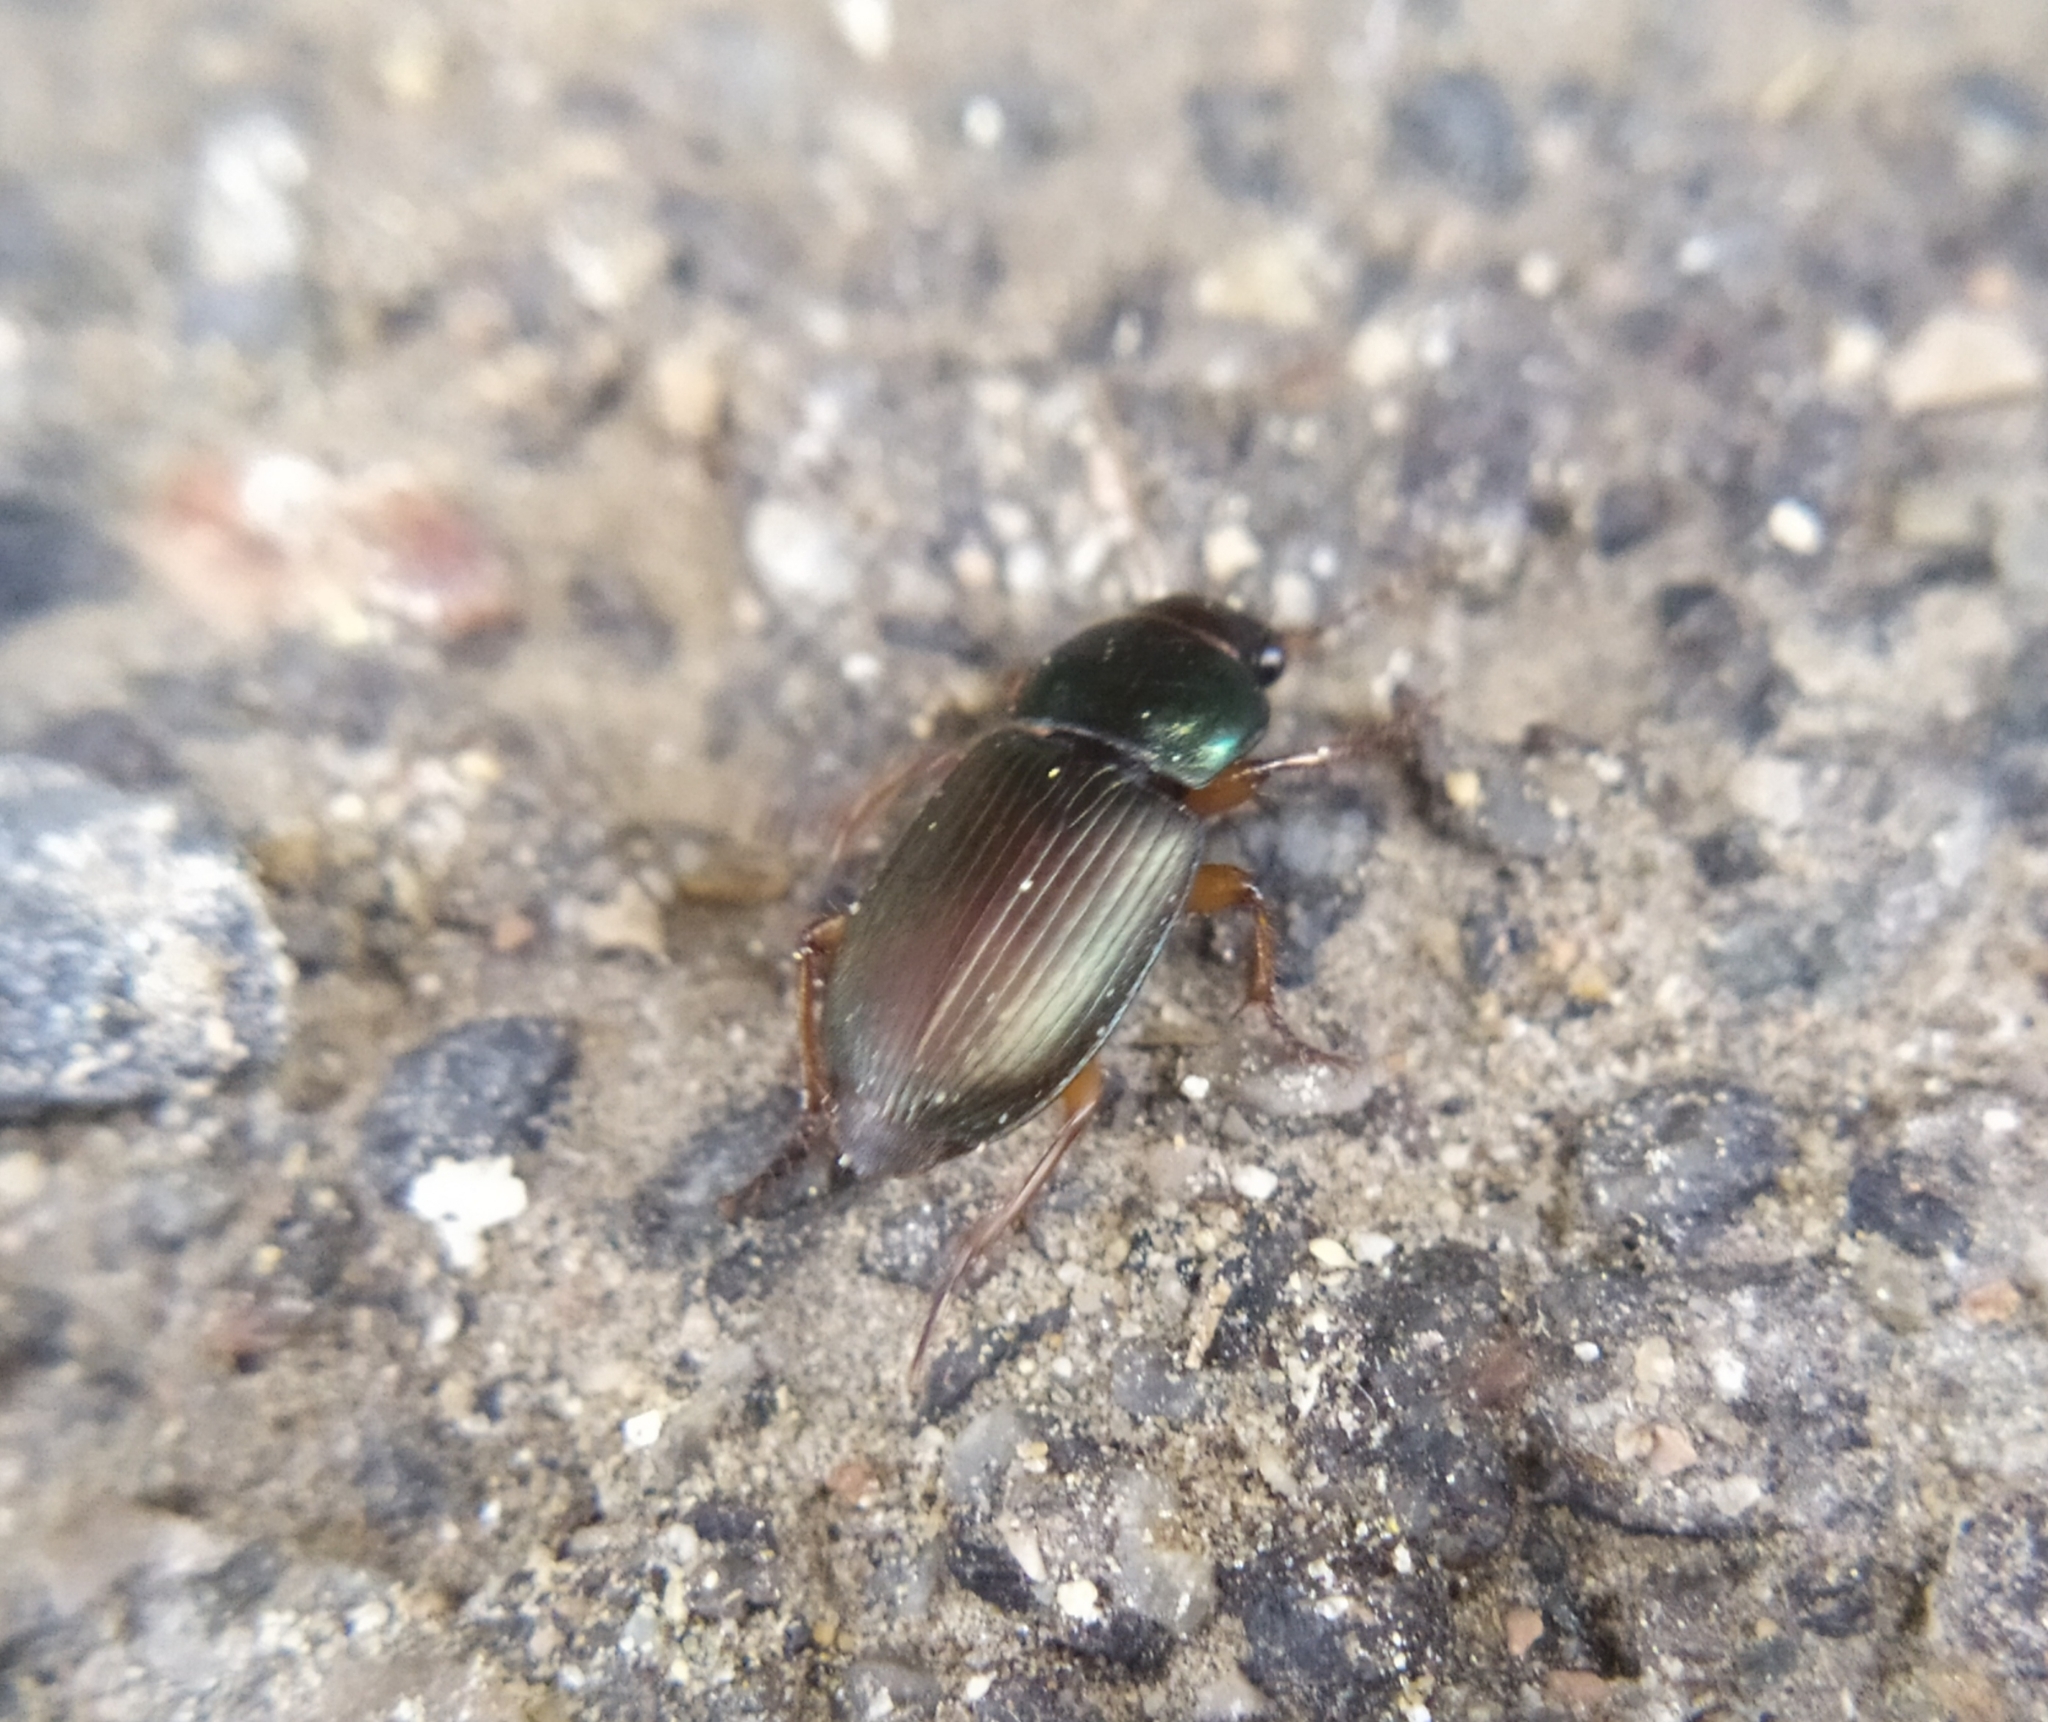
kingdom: Animalia
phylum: Arthropoda
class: Insecta
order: Coleoptera
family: Carabidae
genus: Harpalus
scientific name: Harpalus affinis
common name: Polychrome harp ground beetle
